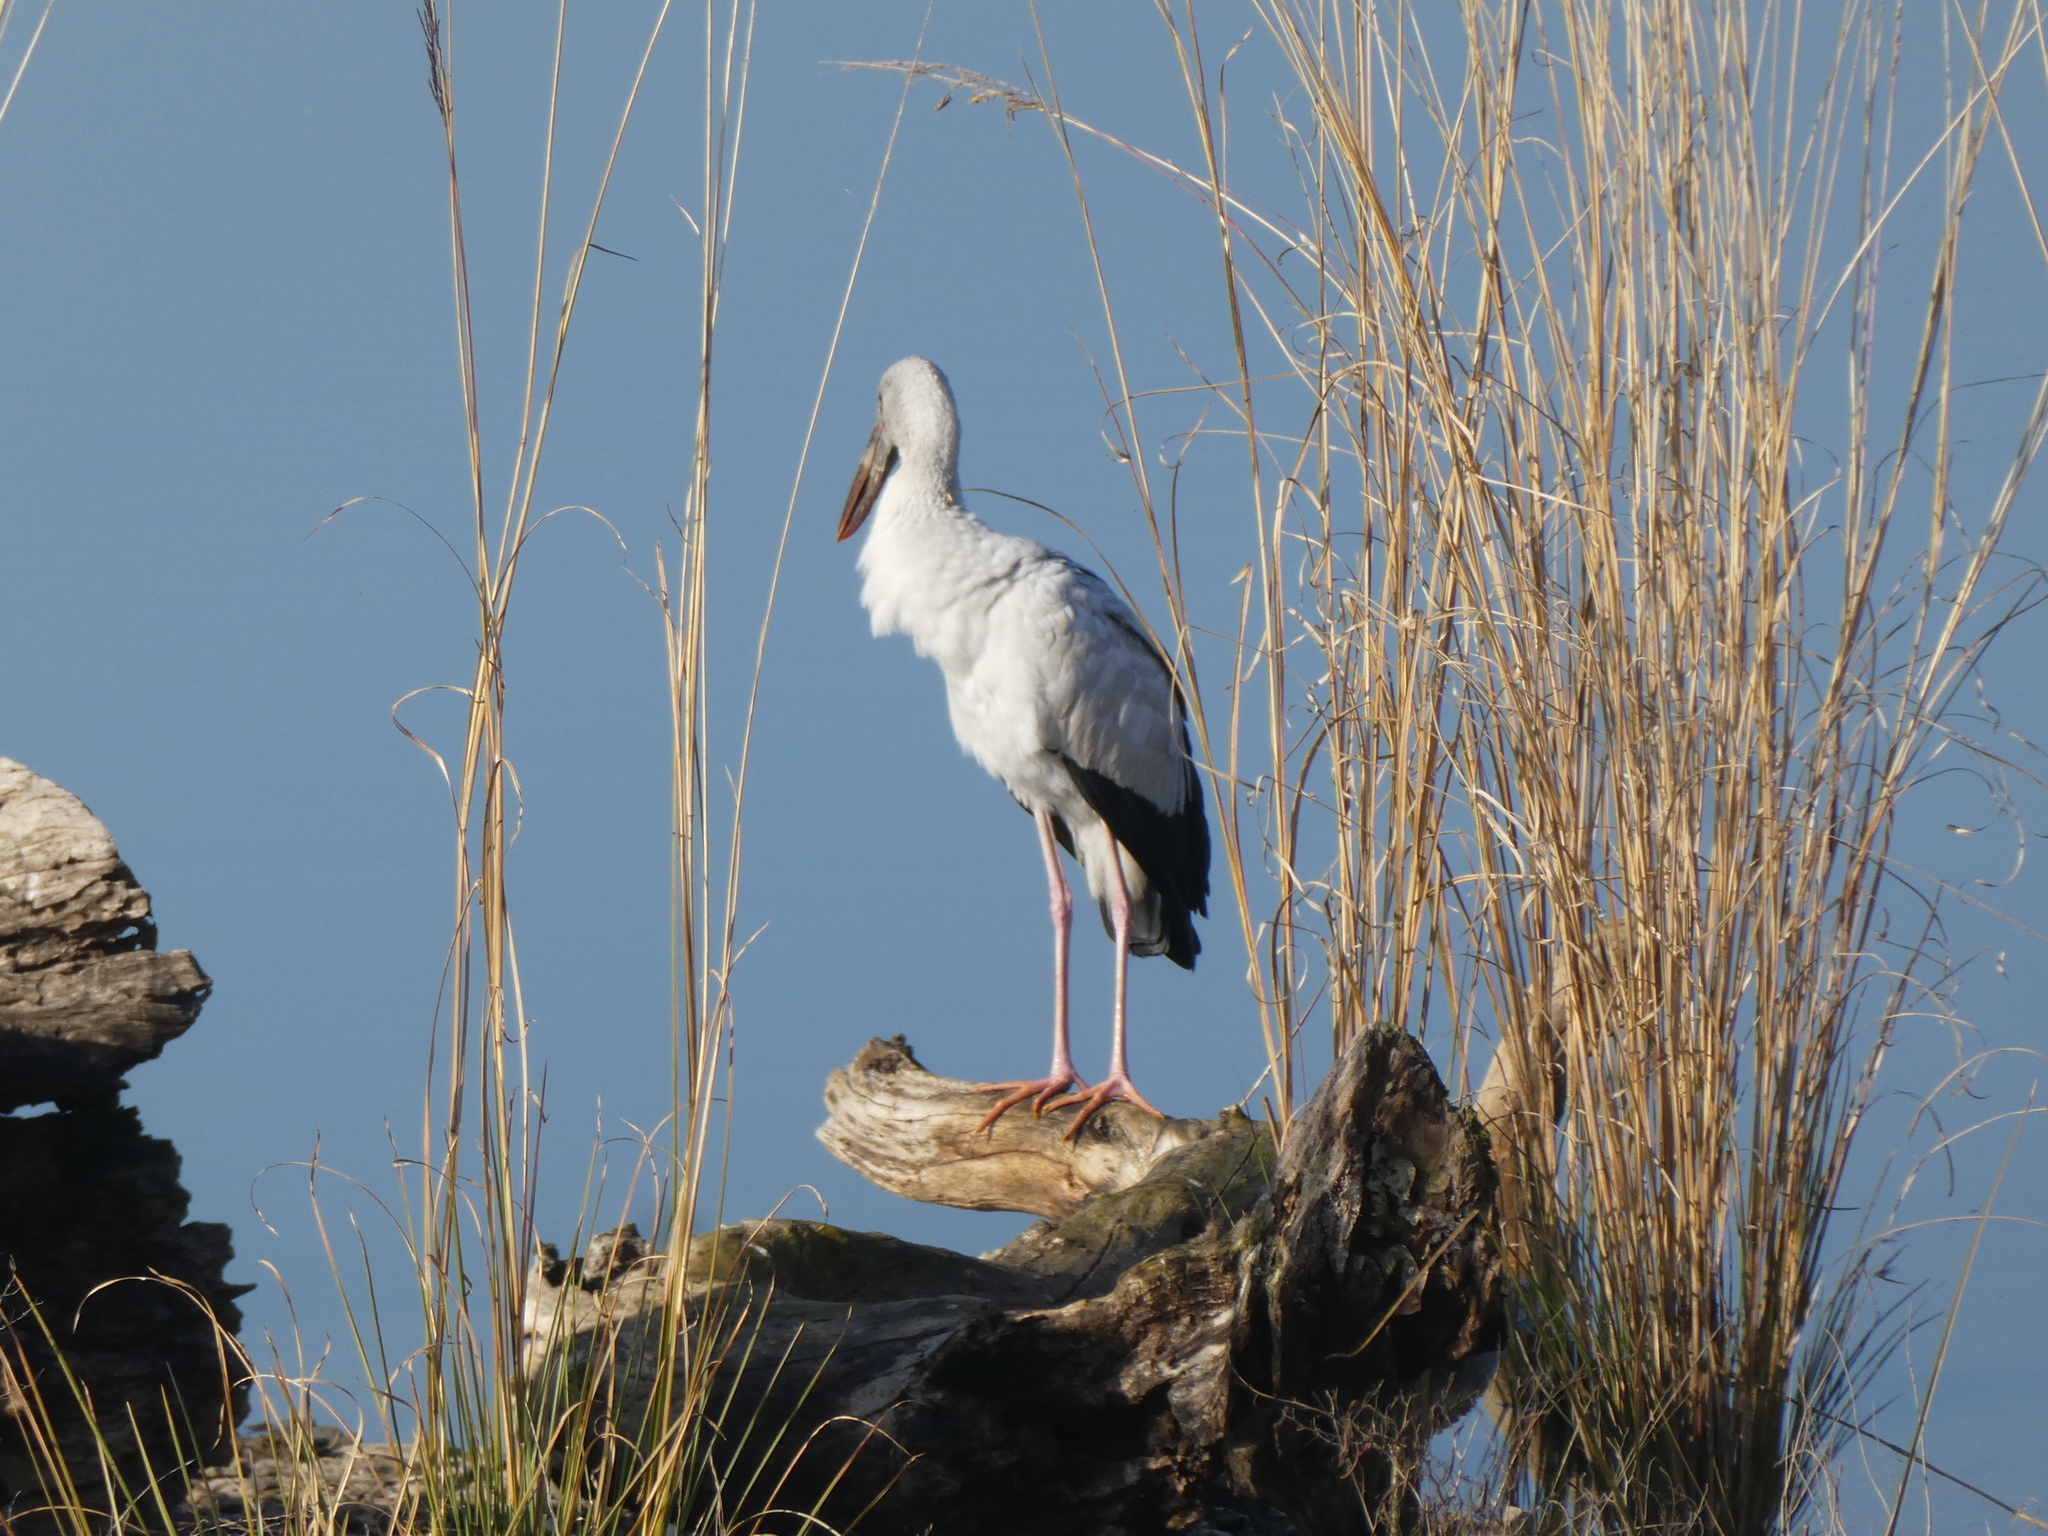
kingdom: Animalia
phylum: Chordata
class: Aves
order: Ciconiiformes
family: Ciconiidae
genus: Anastomus
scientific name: Anastomus oscitans
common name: Asian openbill
